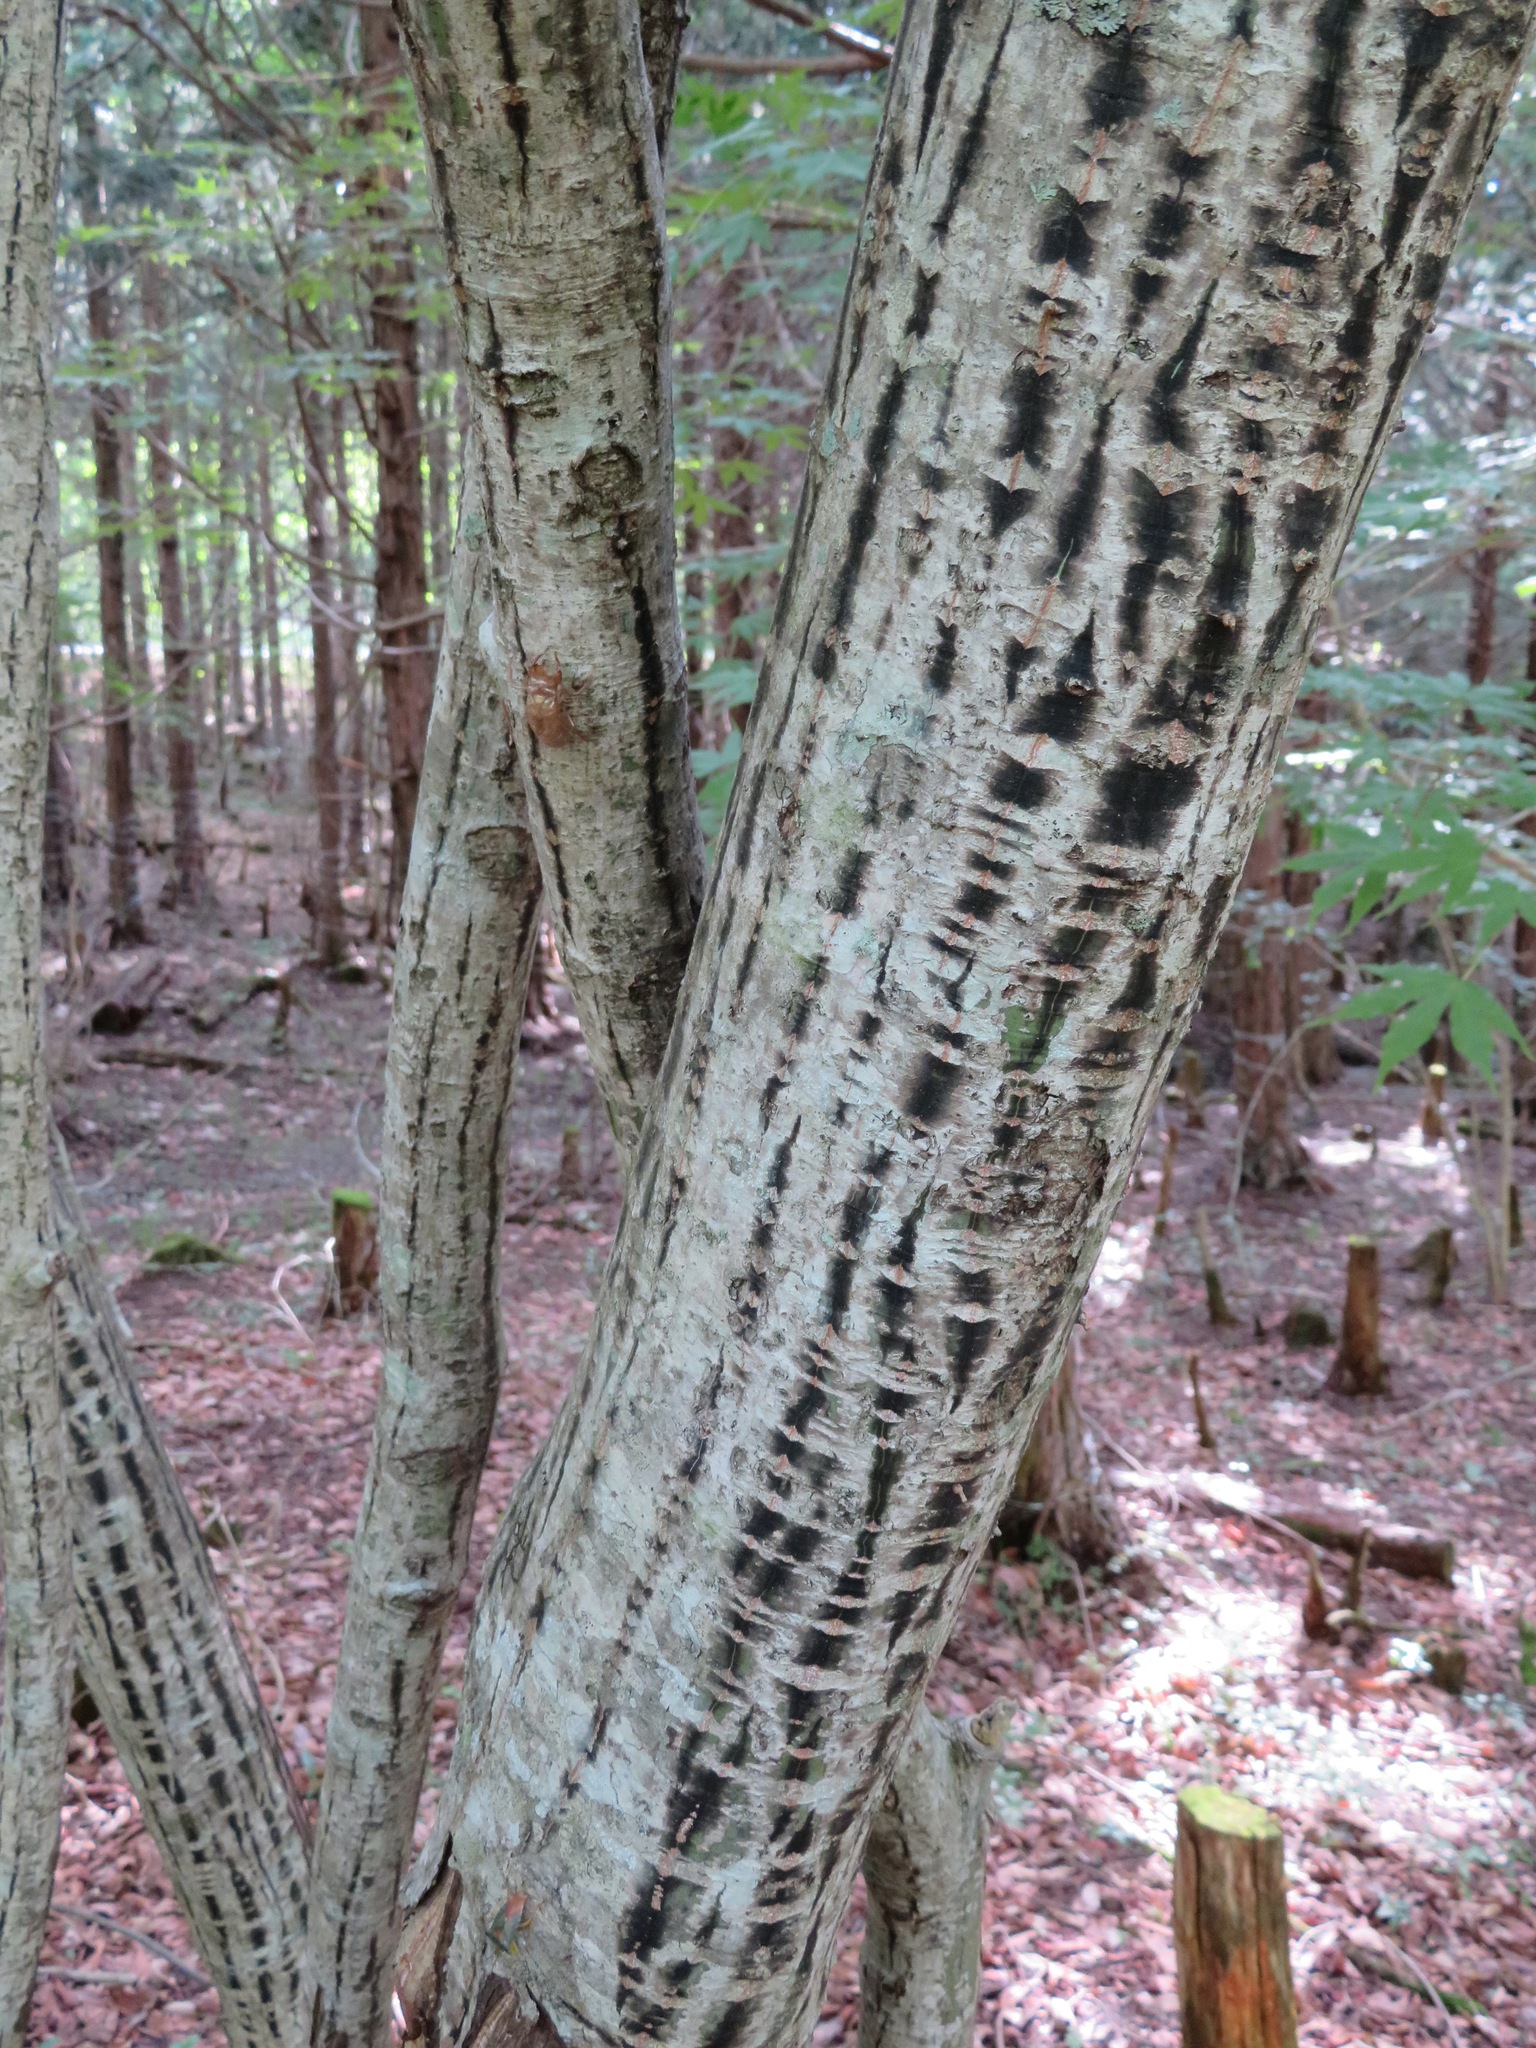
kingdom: Plantae
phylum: Tracheophyta
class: Magnoliopsida
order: Sapindales
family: Sapindaceae
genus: Acer
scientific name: Acer rufinerve
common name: Red veined maple
